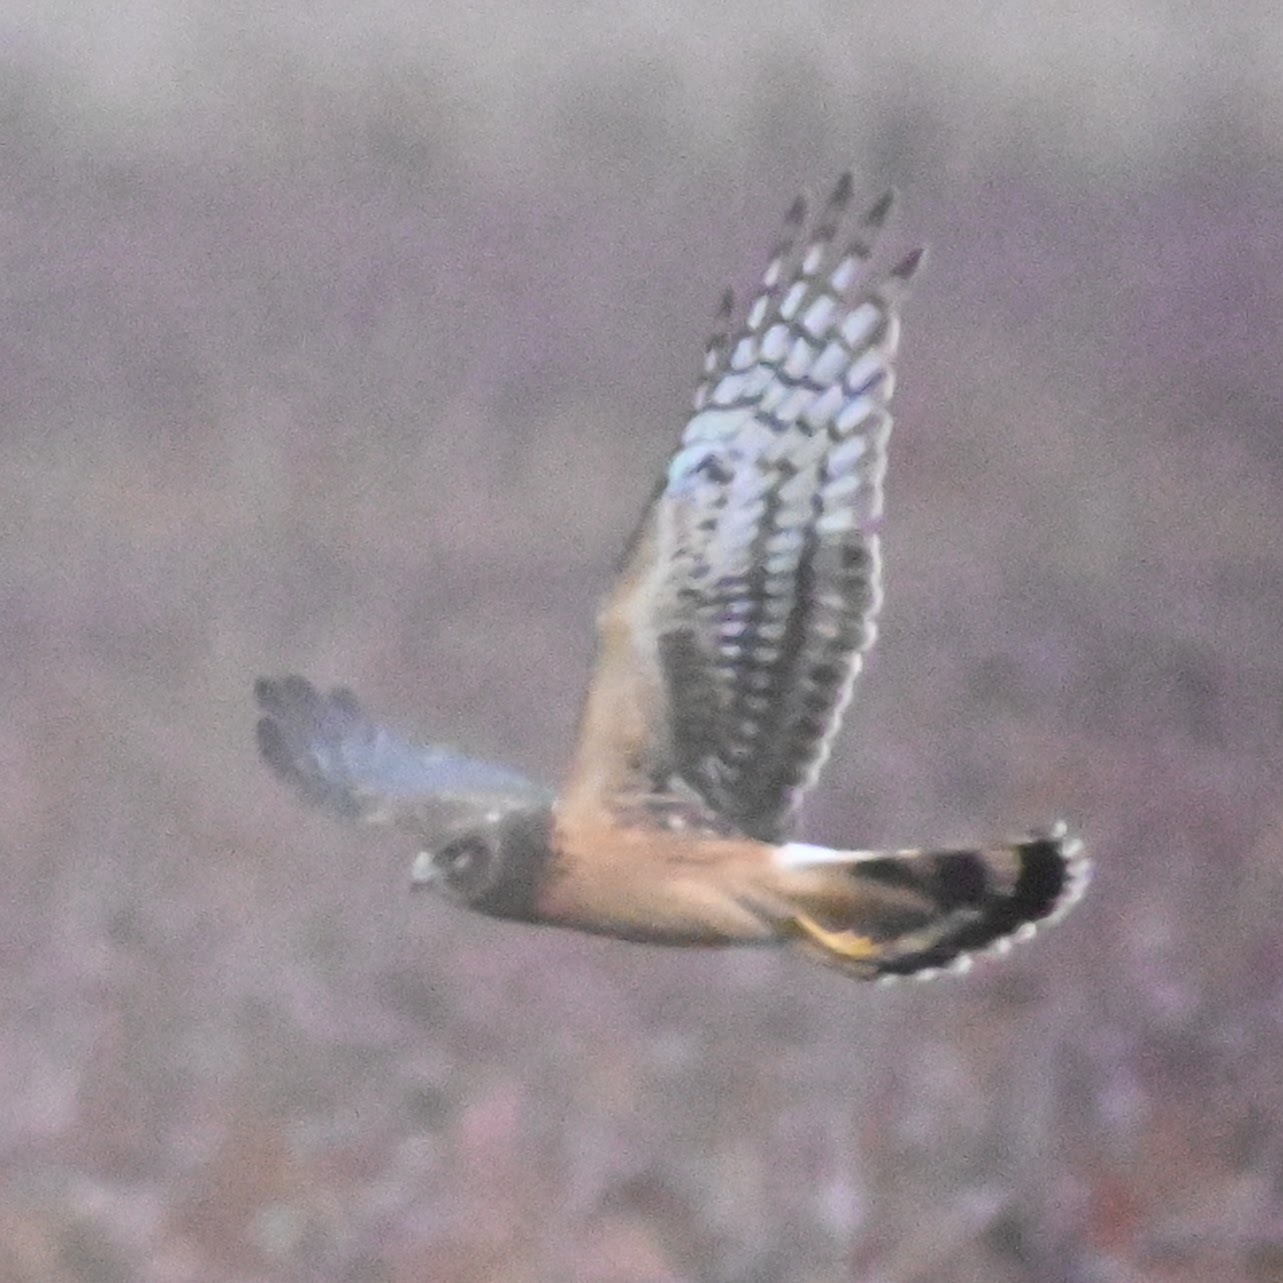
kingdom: Animalia
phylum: Chordata
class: Aves
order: Accipitriformes
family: Accipitridae
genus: Circus
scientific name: Circus cyaneus
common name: Hen harrier
